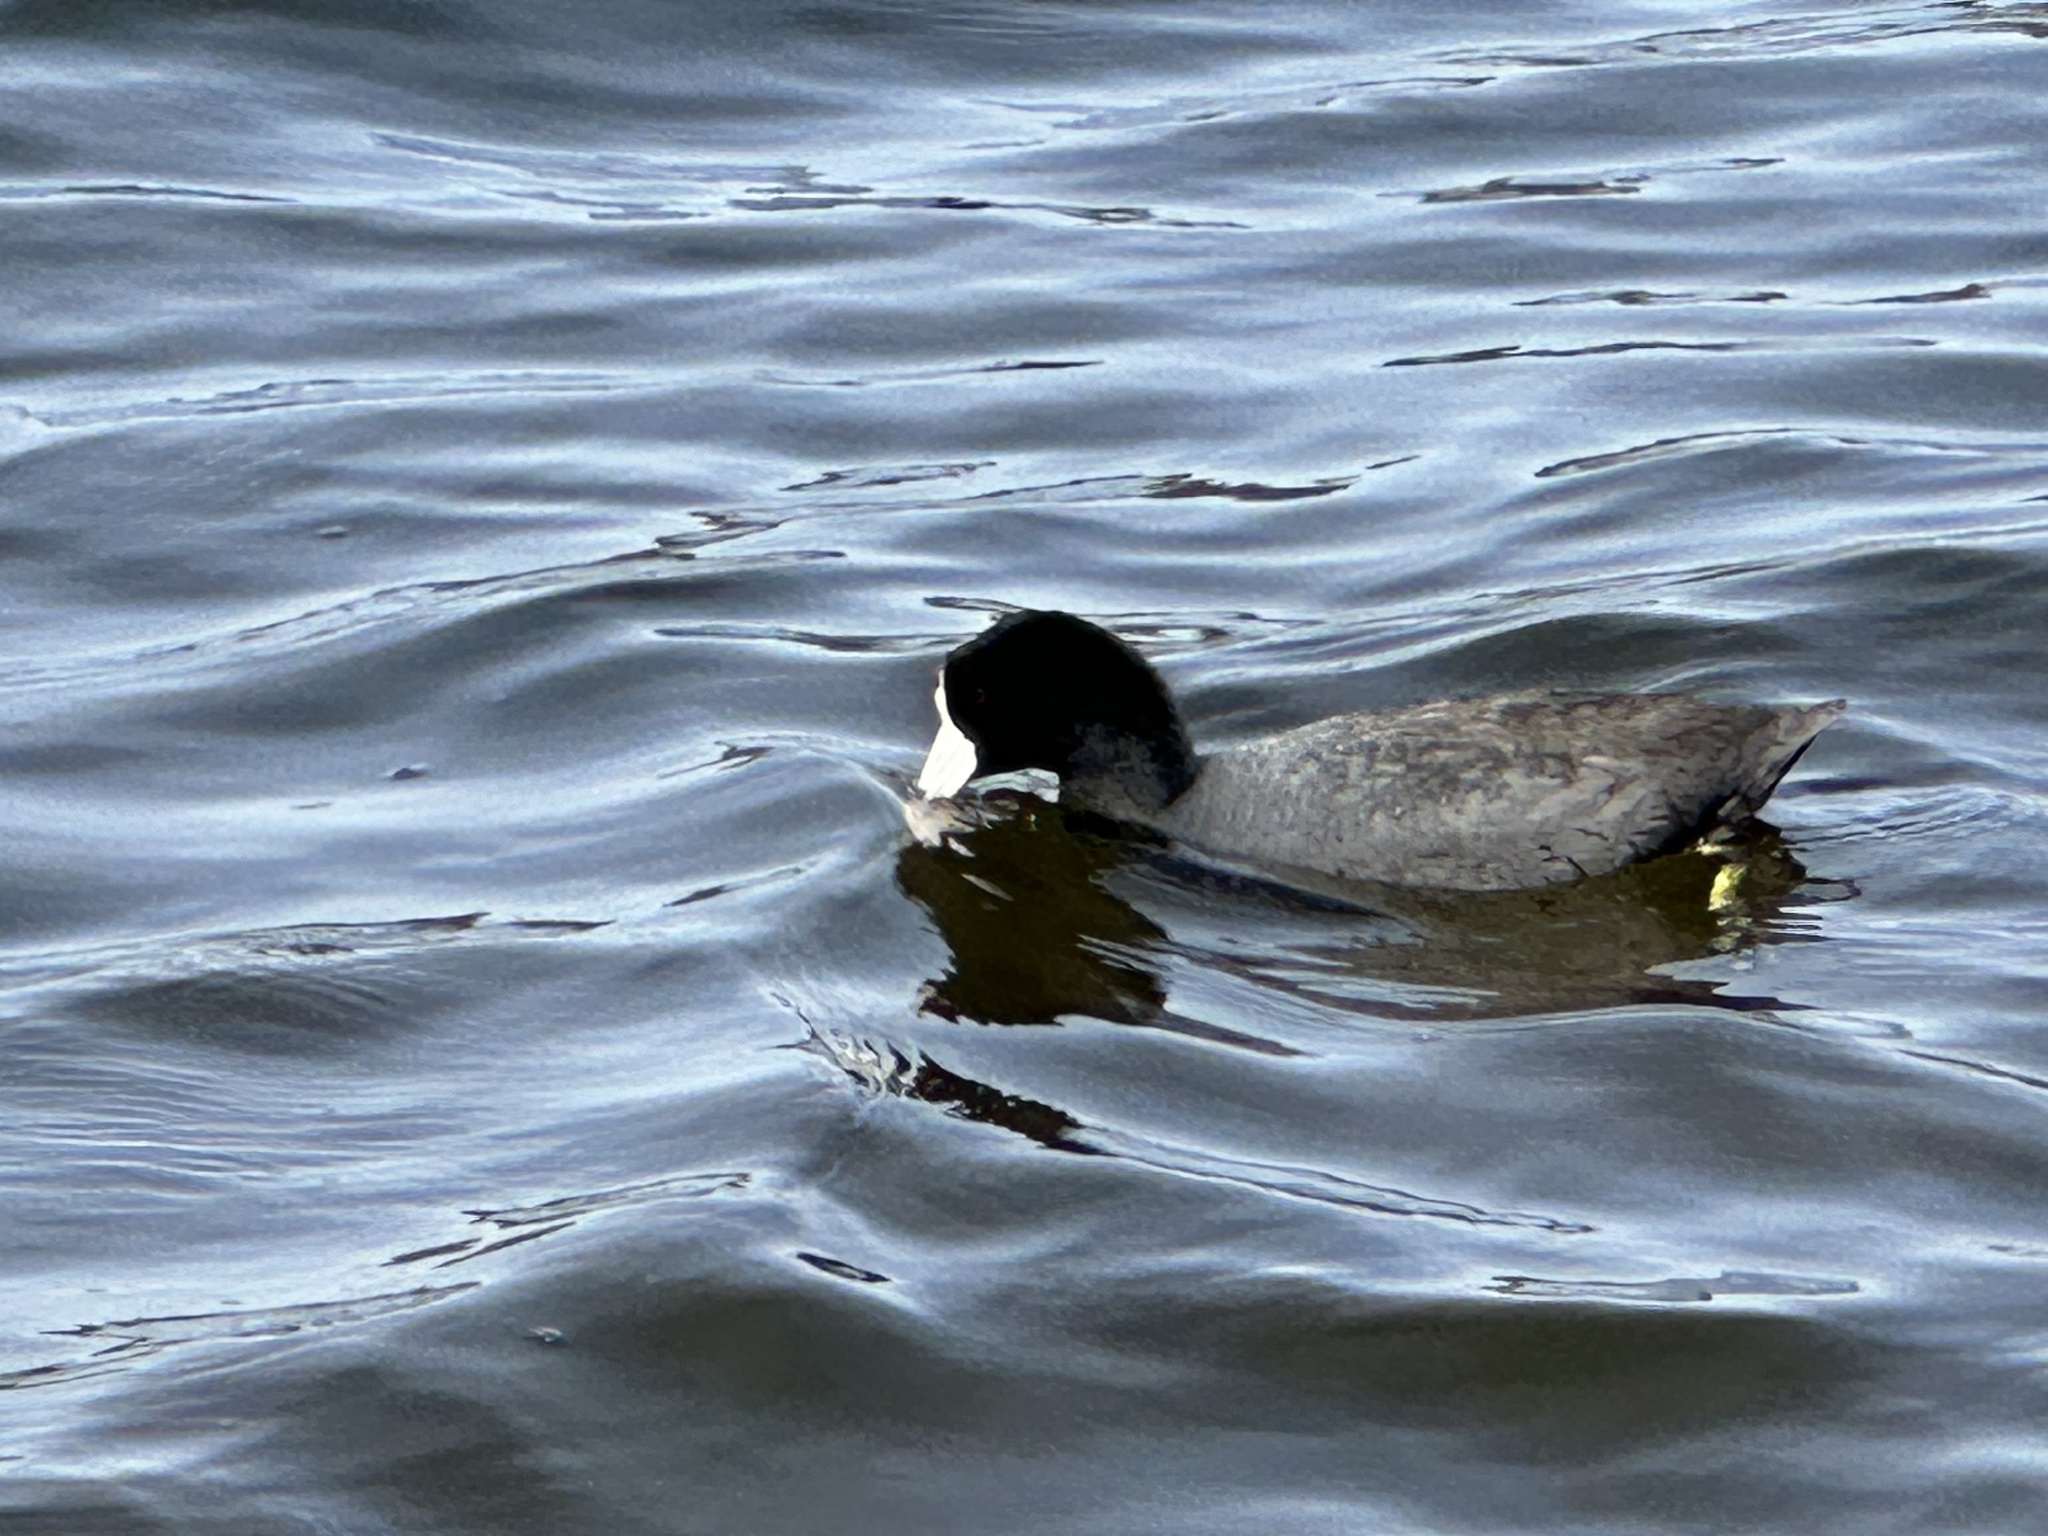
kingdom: Animalia
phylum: Chordata
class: Aves
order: Gruiformes
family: Rallidae
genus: Fulica
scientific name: Fulica americana
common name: American coot
